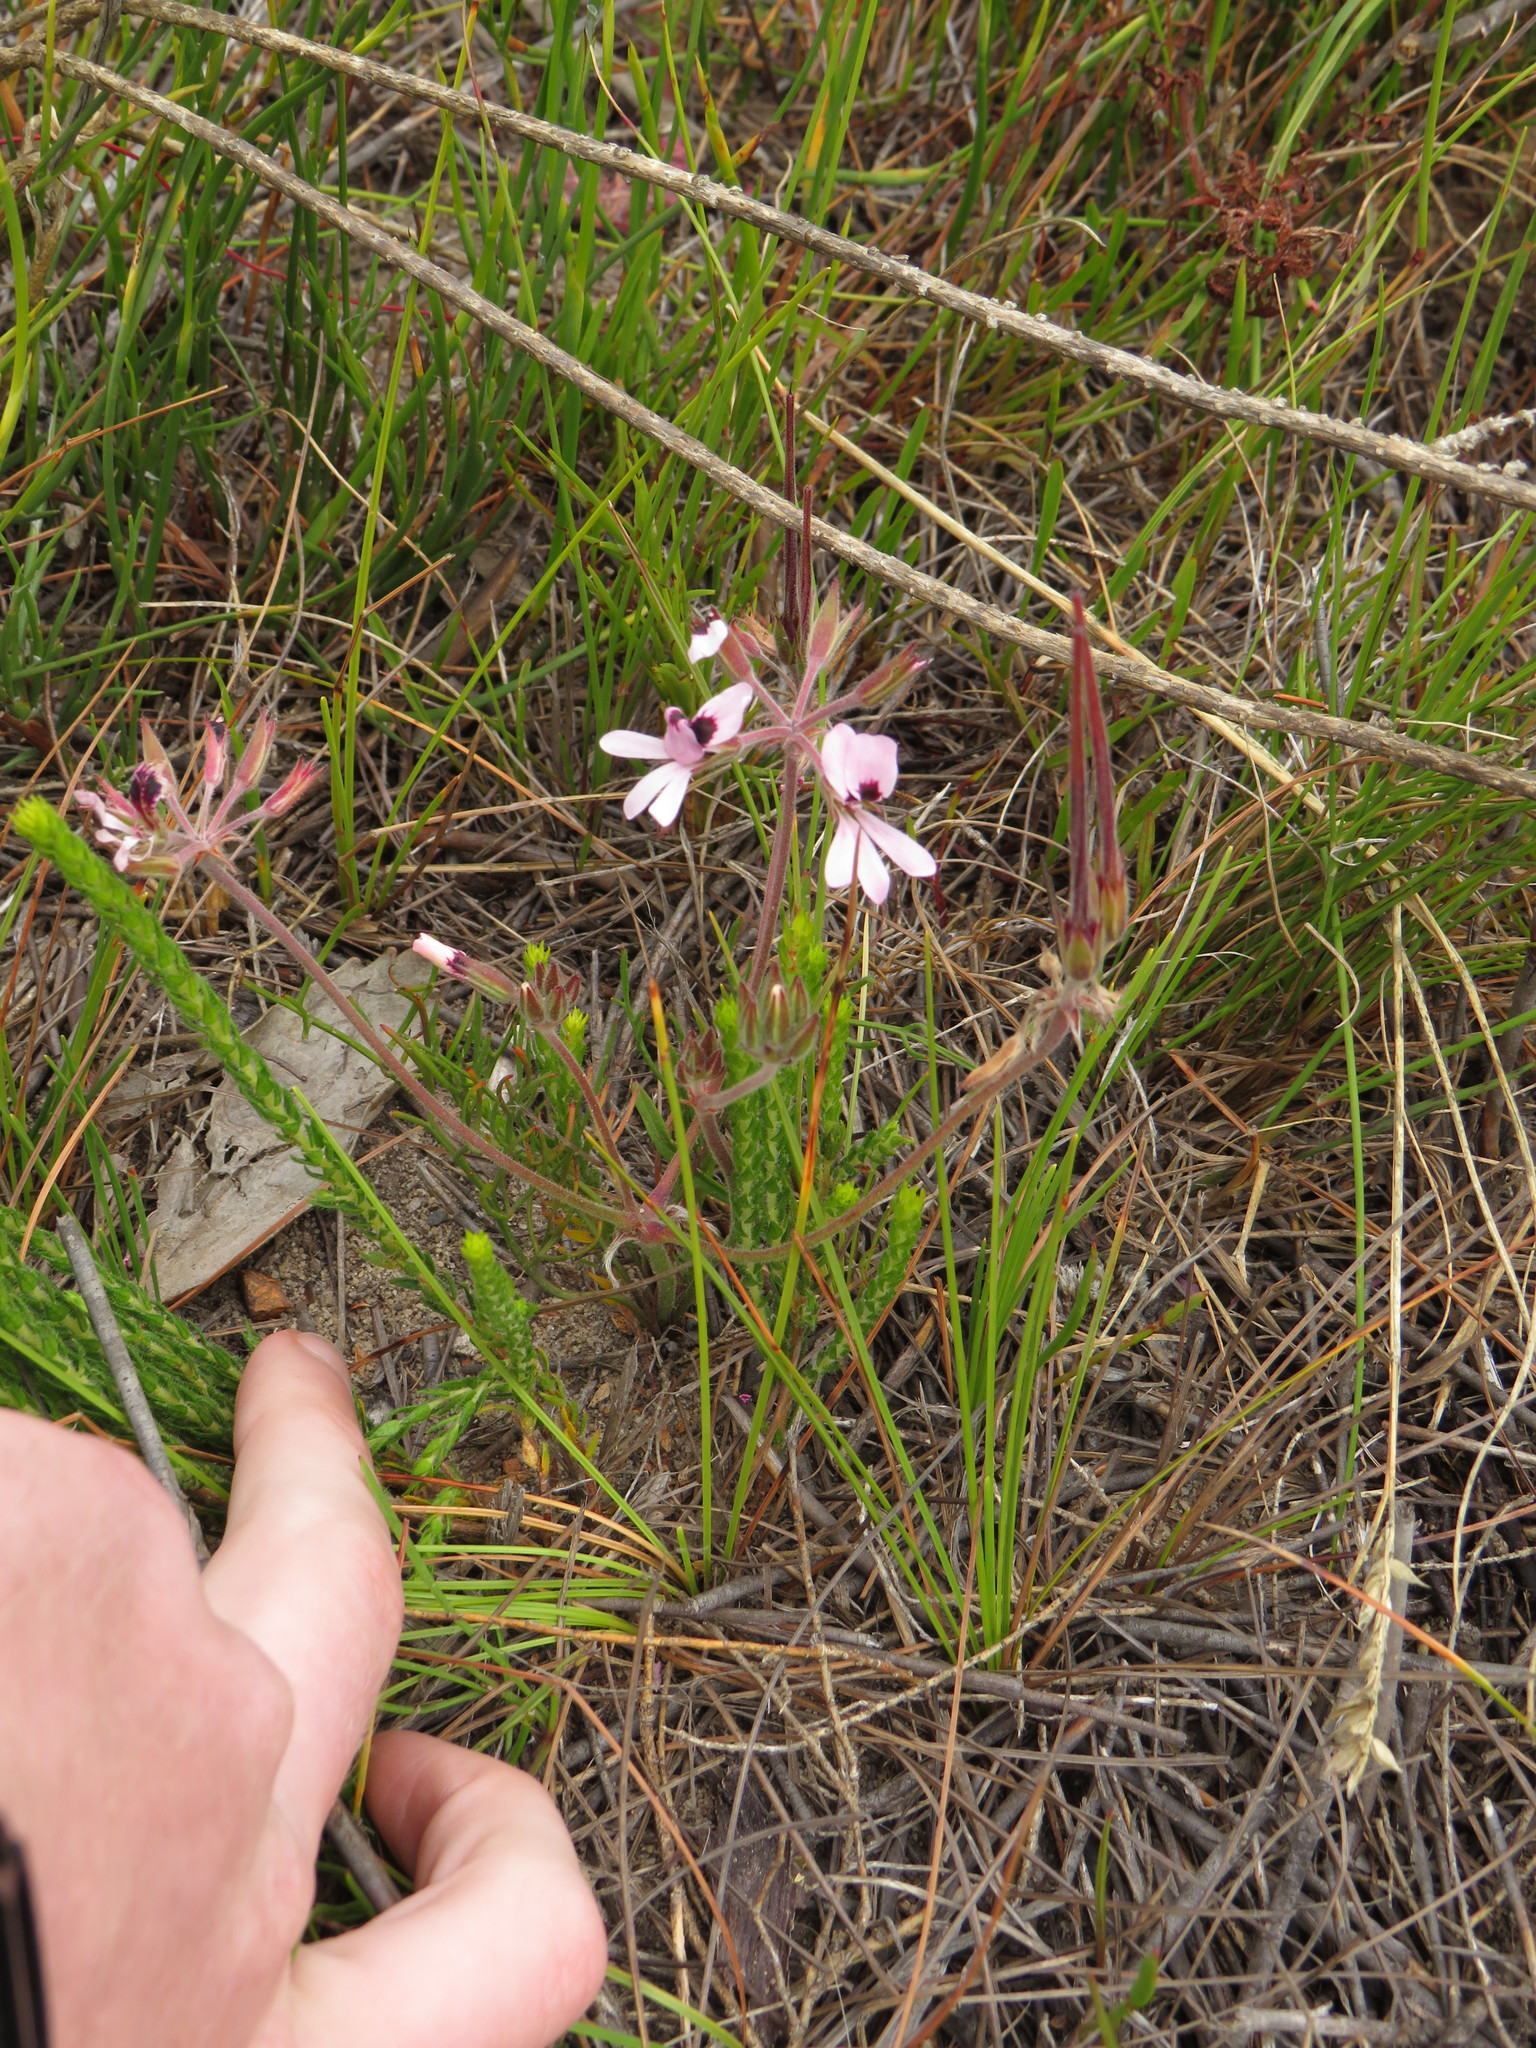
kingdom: Plantae
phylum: Tracheophyta
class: Magnoliopsida
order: Geraniales
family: Geraniaceae
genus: Pelargonium
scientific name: Pelargonium psammophilum
